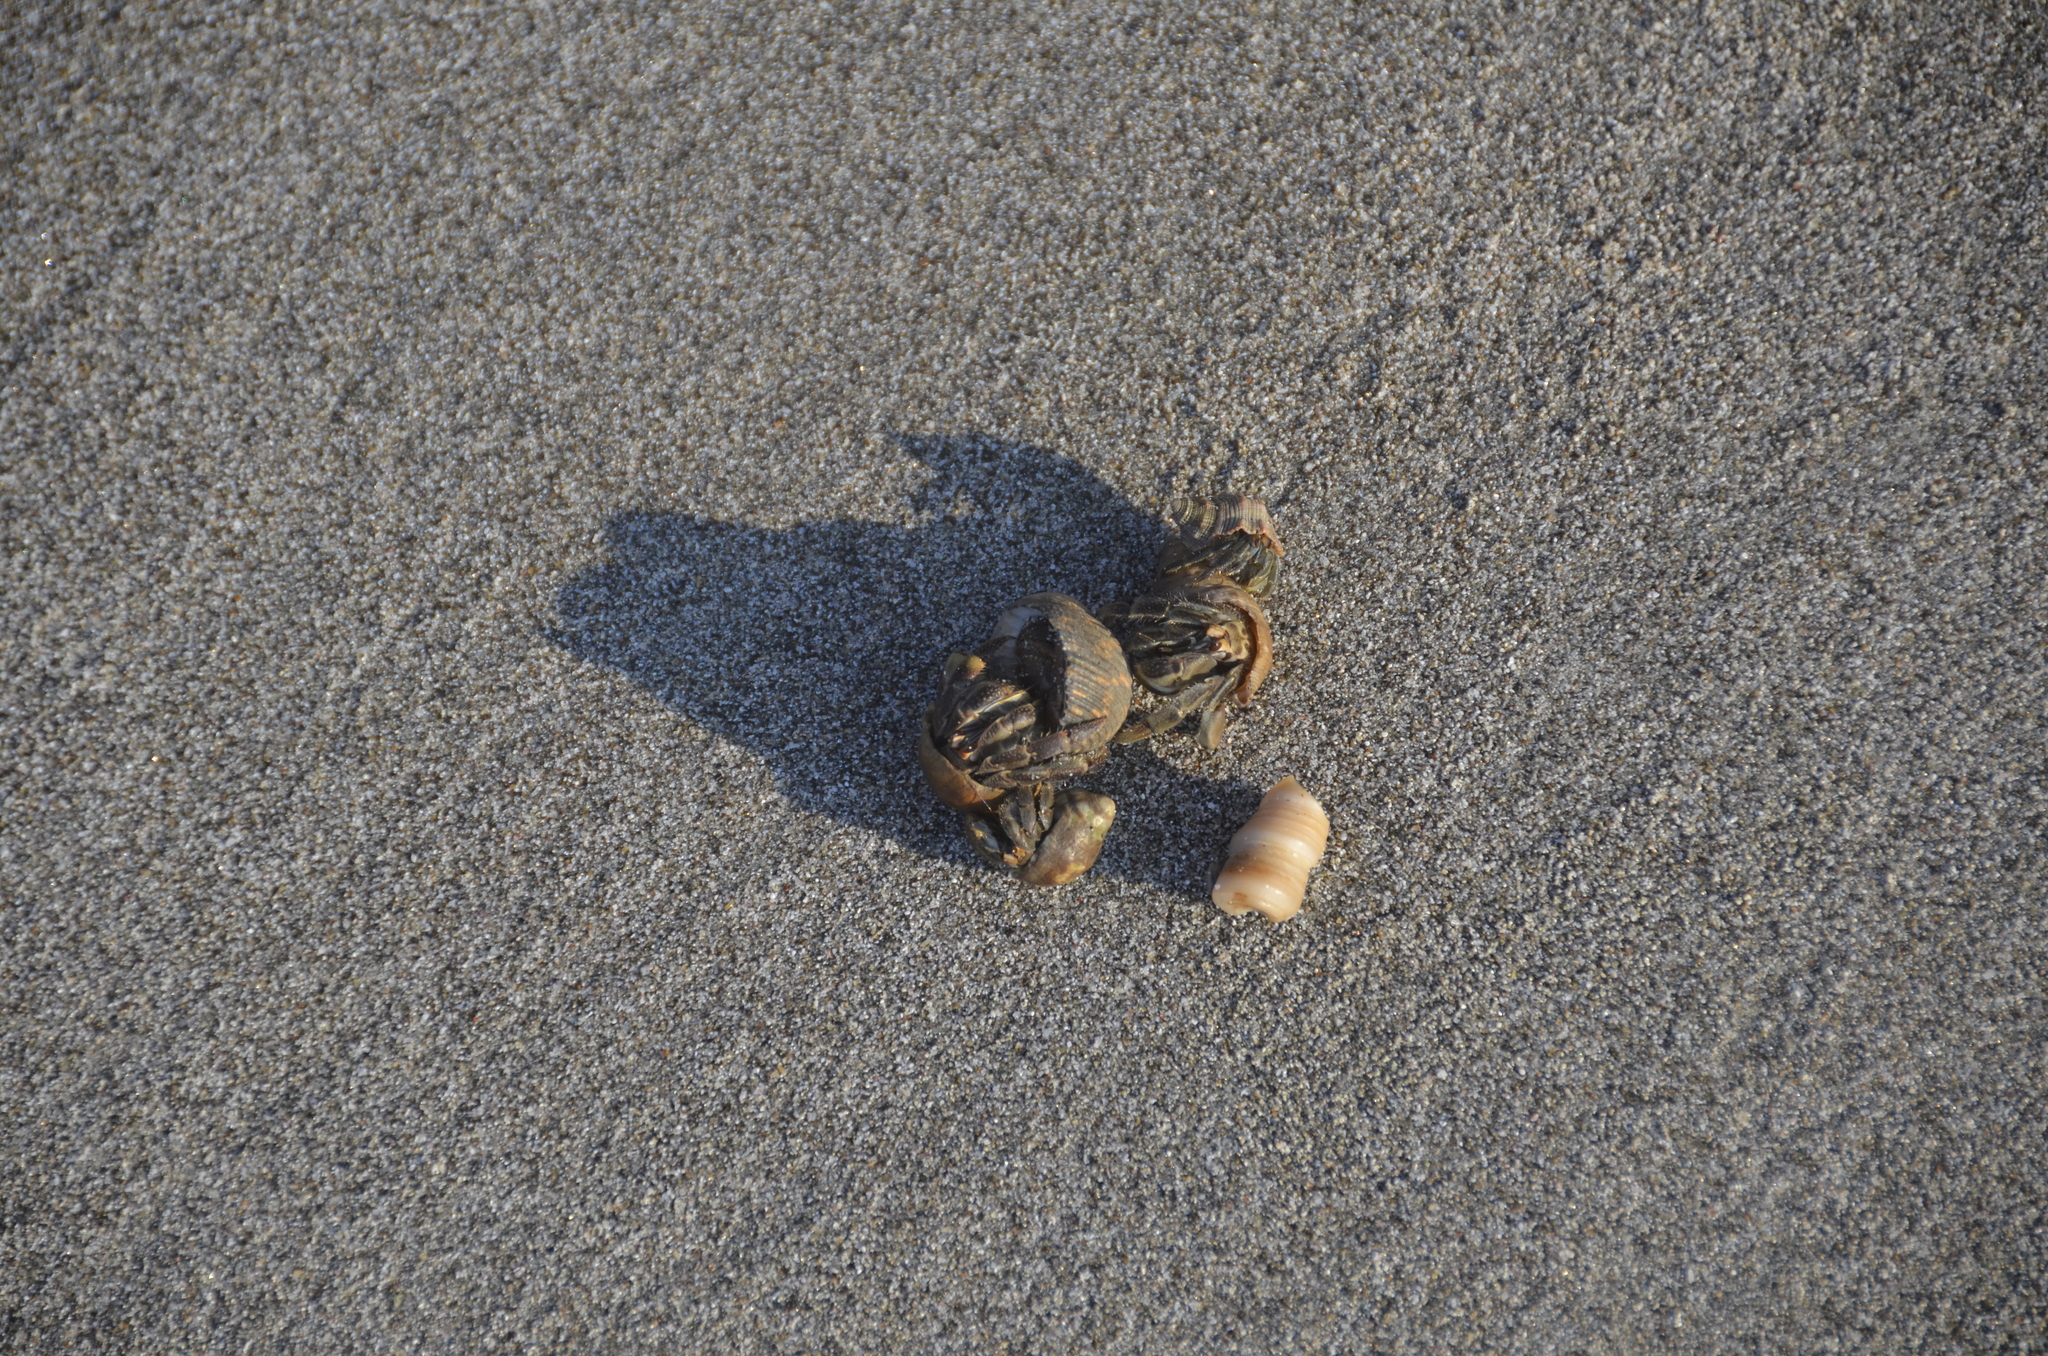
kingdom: Animalia
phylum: Arthropoda
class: Malacostraca
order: Decapoda
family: Coenobitidae
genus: Coenobita
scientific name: Coenobita compressus
